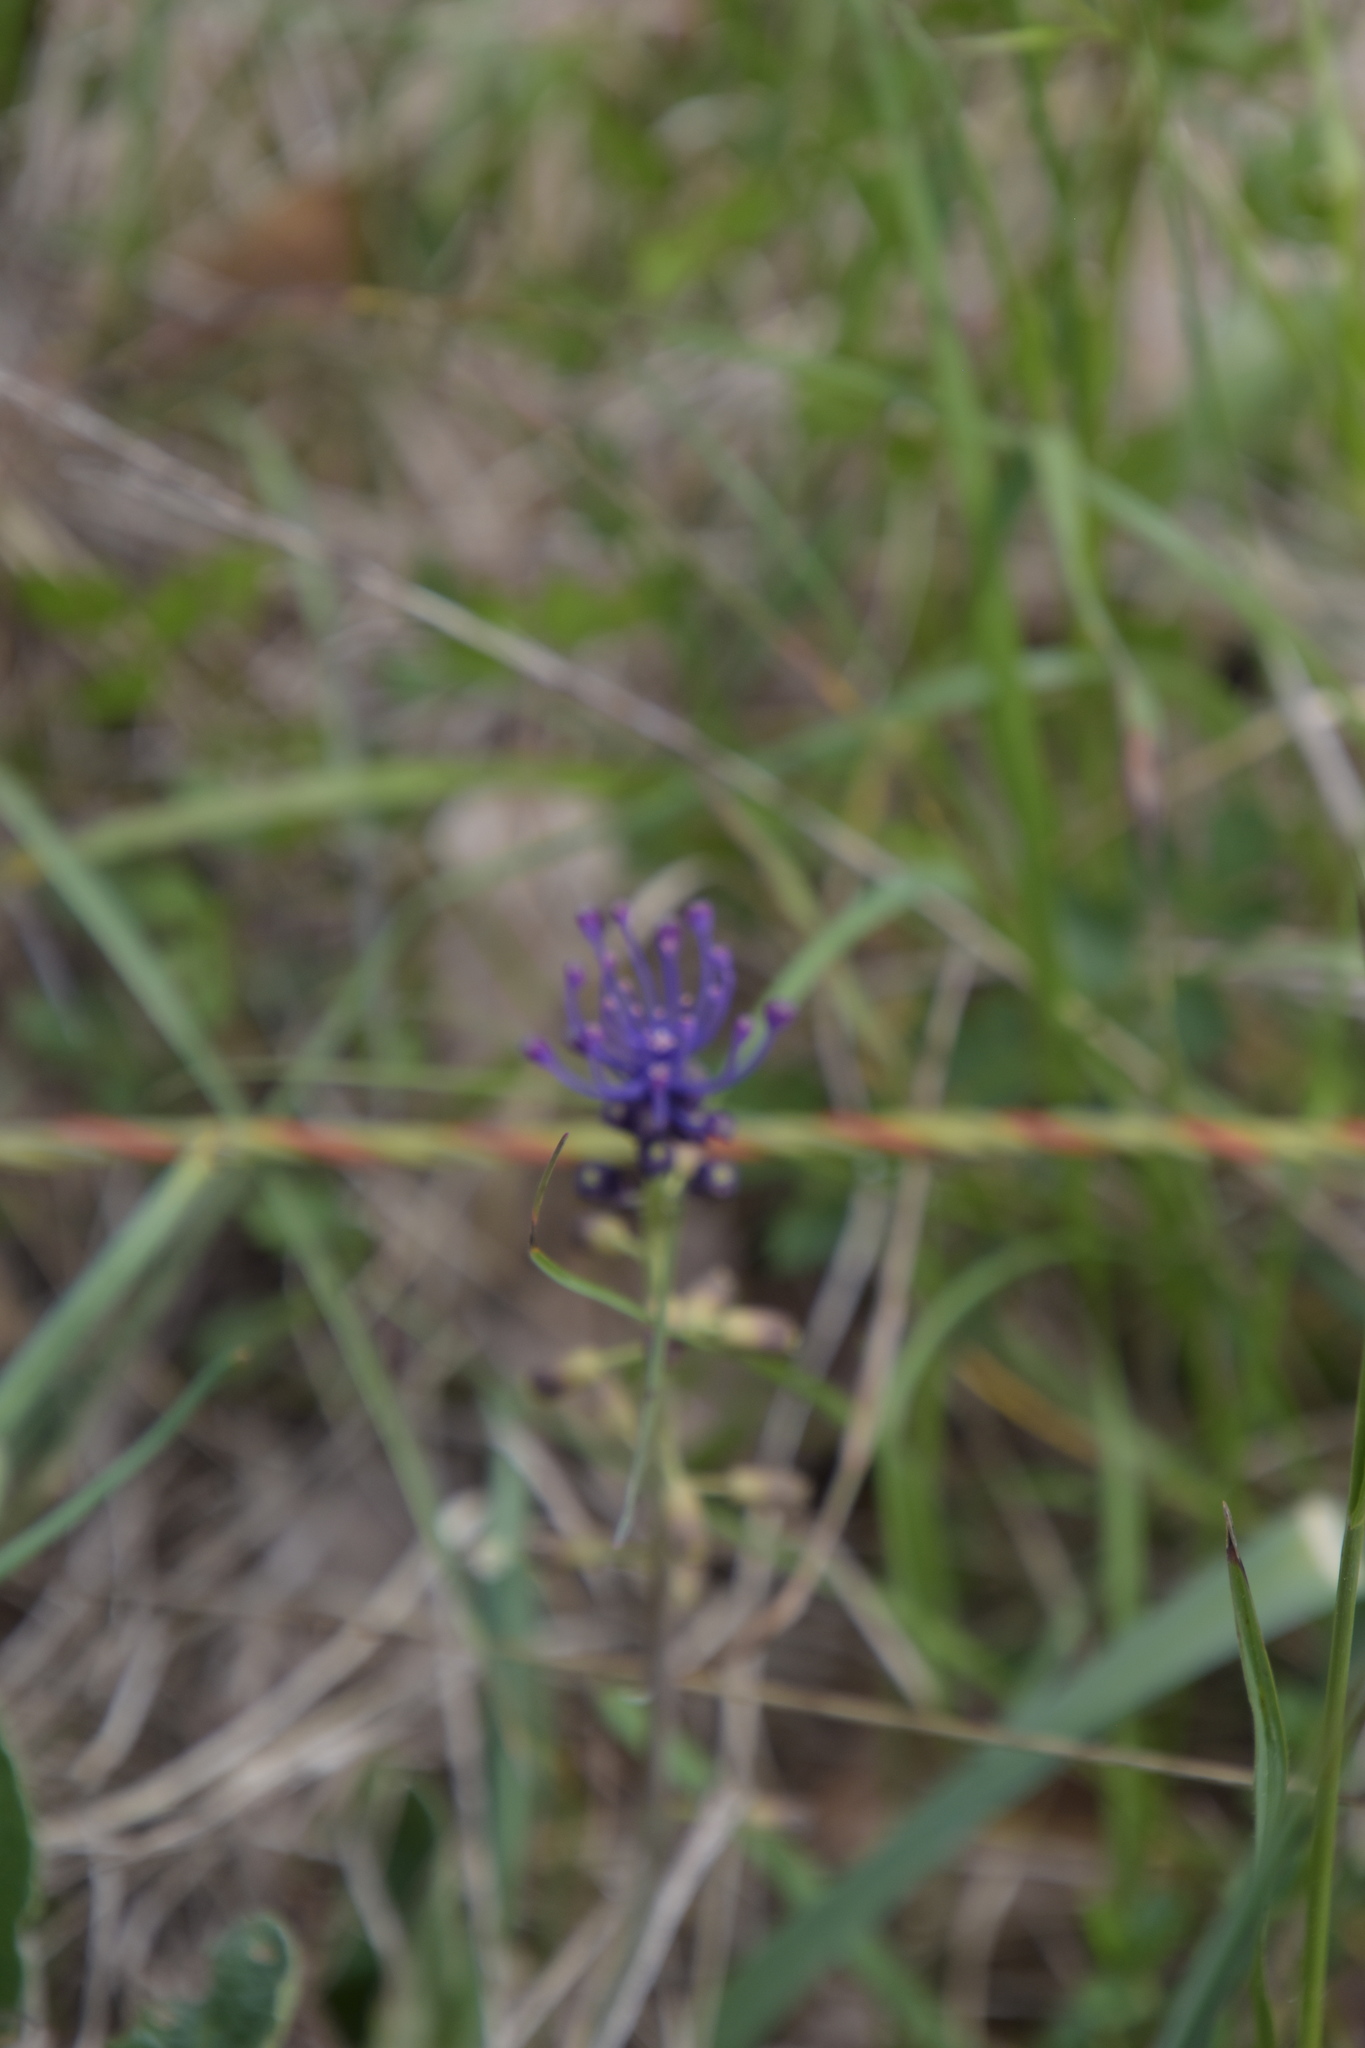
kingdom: Plantae
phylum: Tracheophyta
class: Liliopsida
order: Asparagales
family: Asparagaceae
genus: Muscari
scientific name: Muscari comosum
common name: Tassel hyacinth
